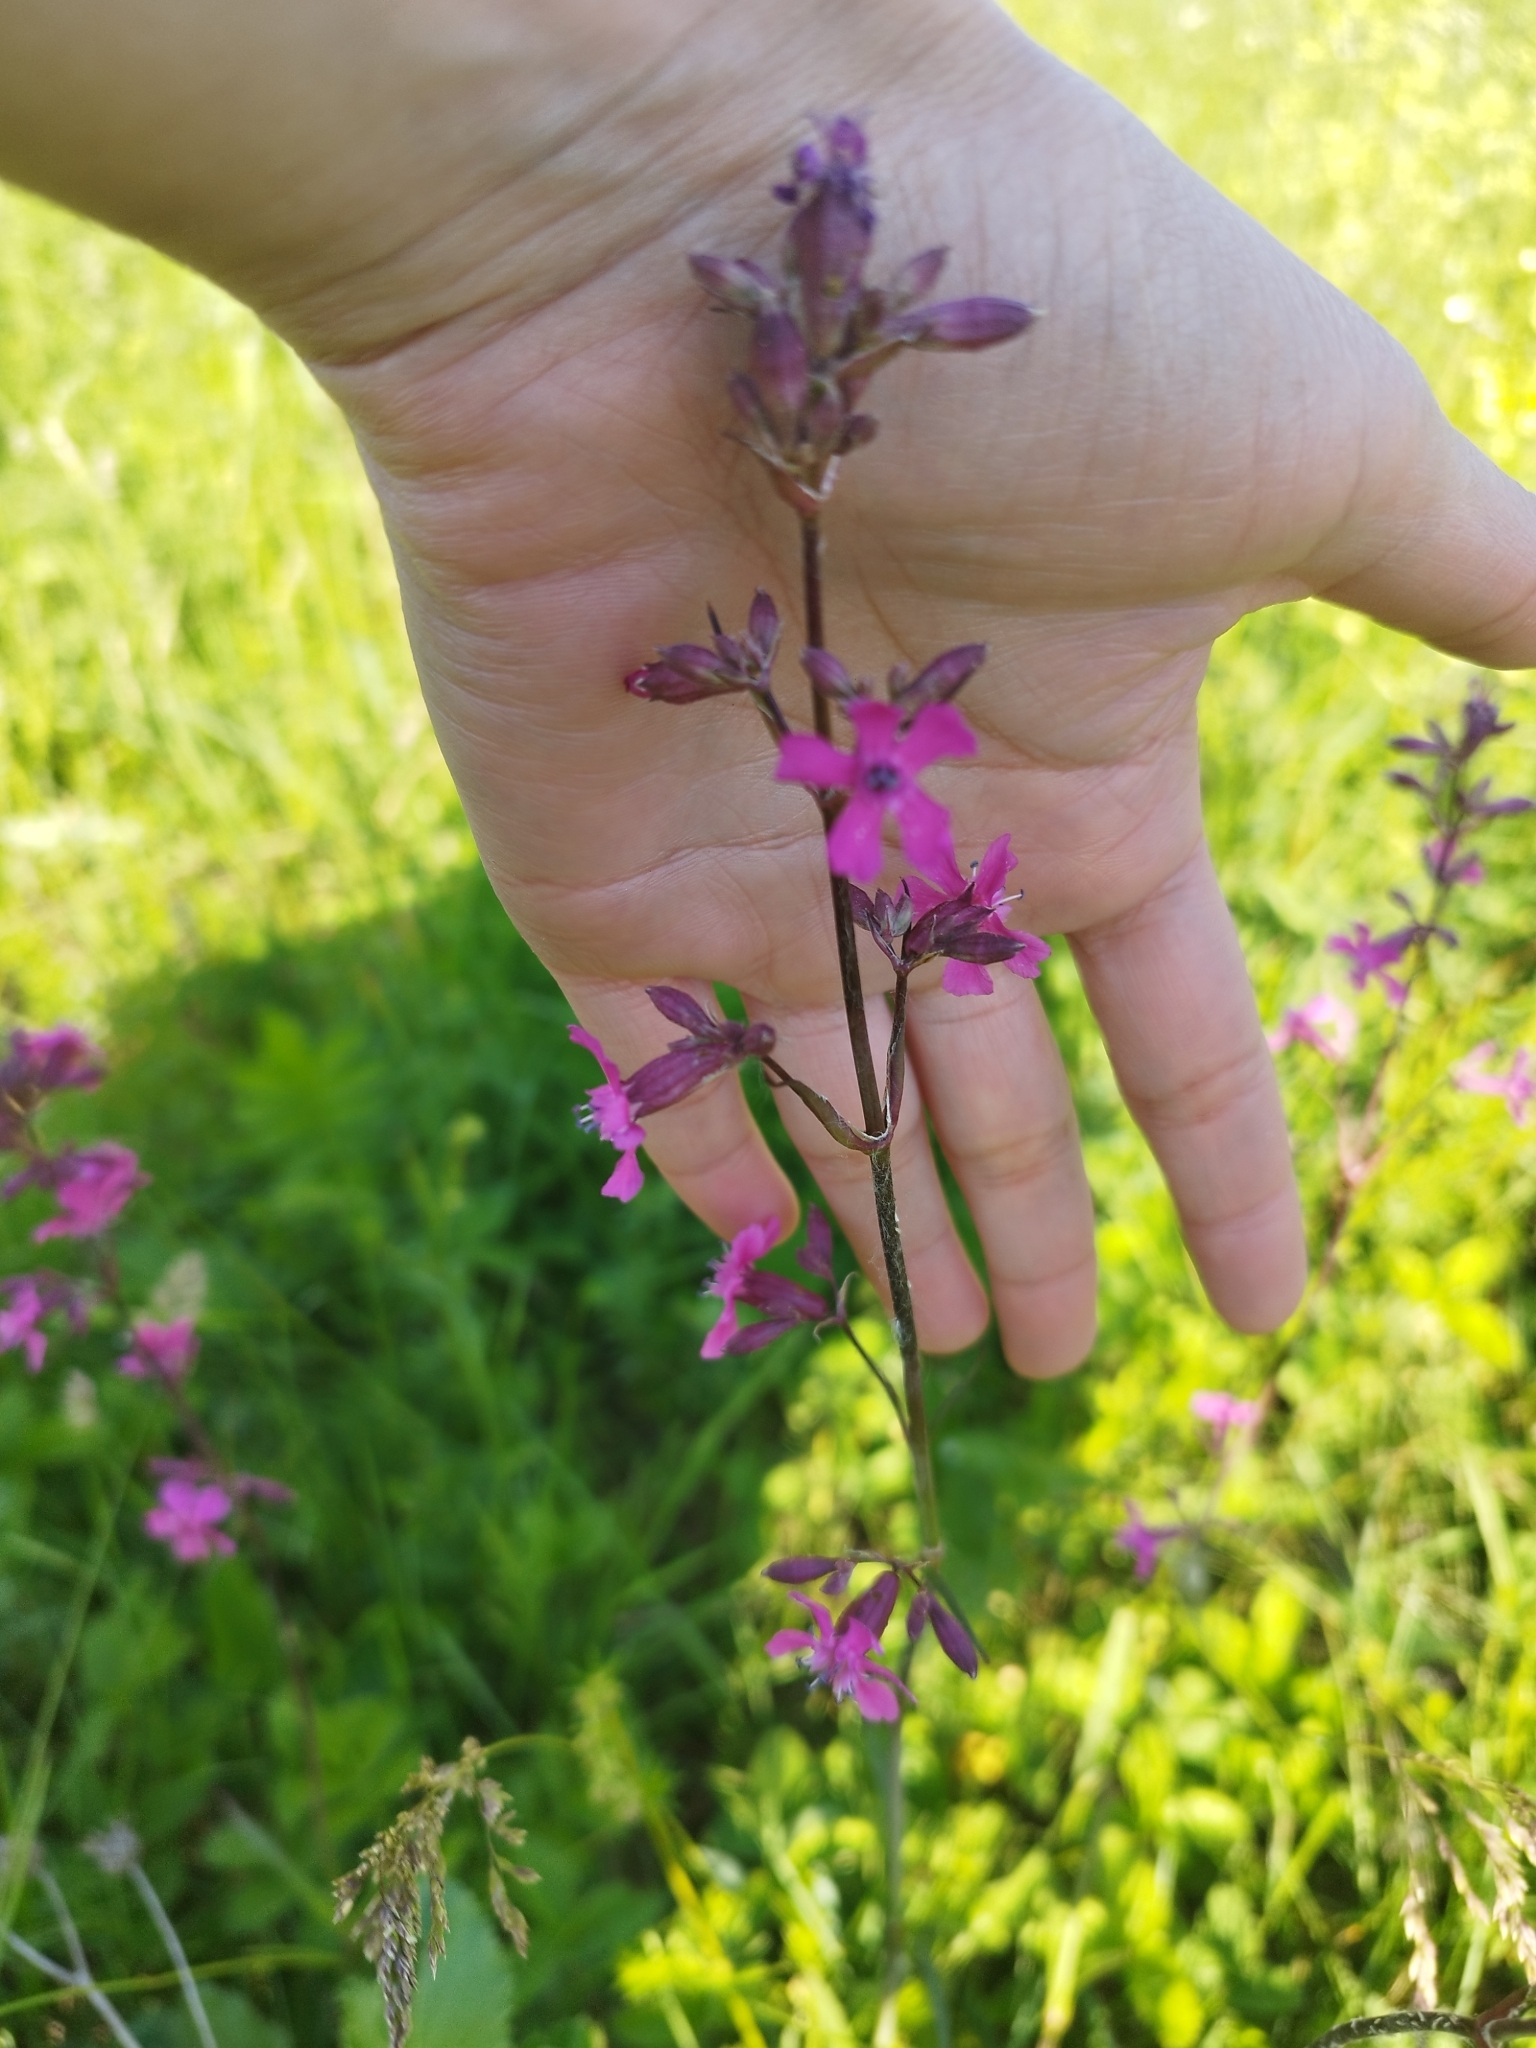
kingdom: Plantae
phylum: Tracheophyta
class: Magnoliopsida
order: Caryophyllales
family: Caryophyllaceae
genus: Viscaria
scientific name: Viscaria vulgaris
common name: Clammy campion
